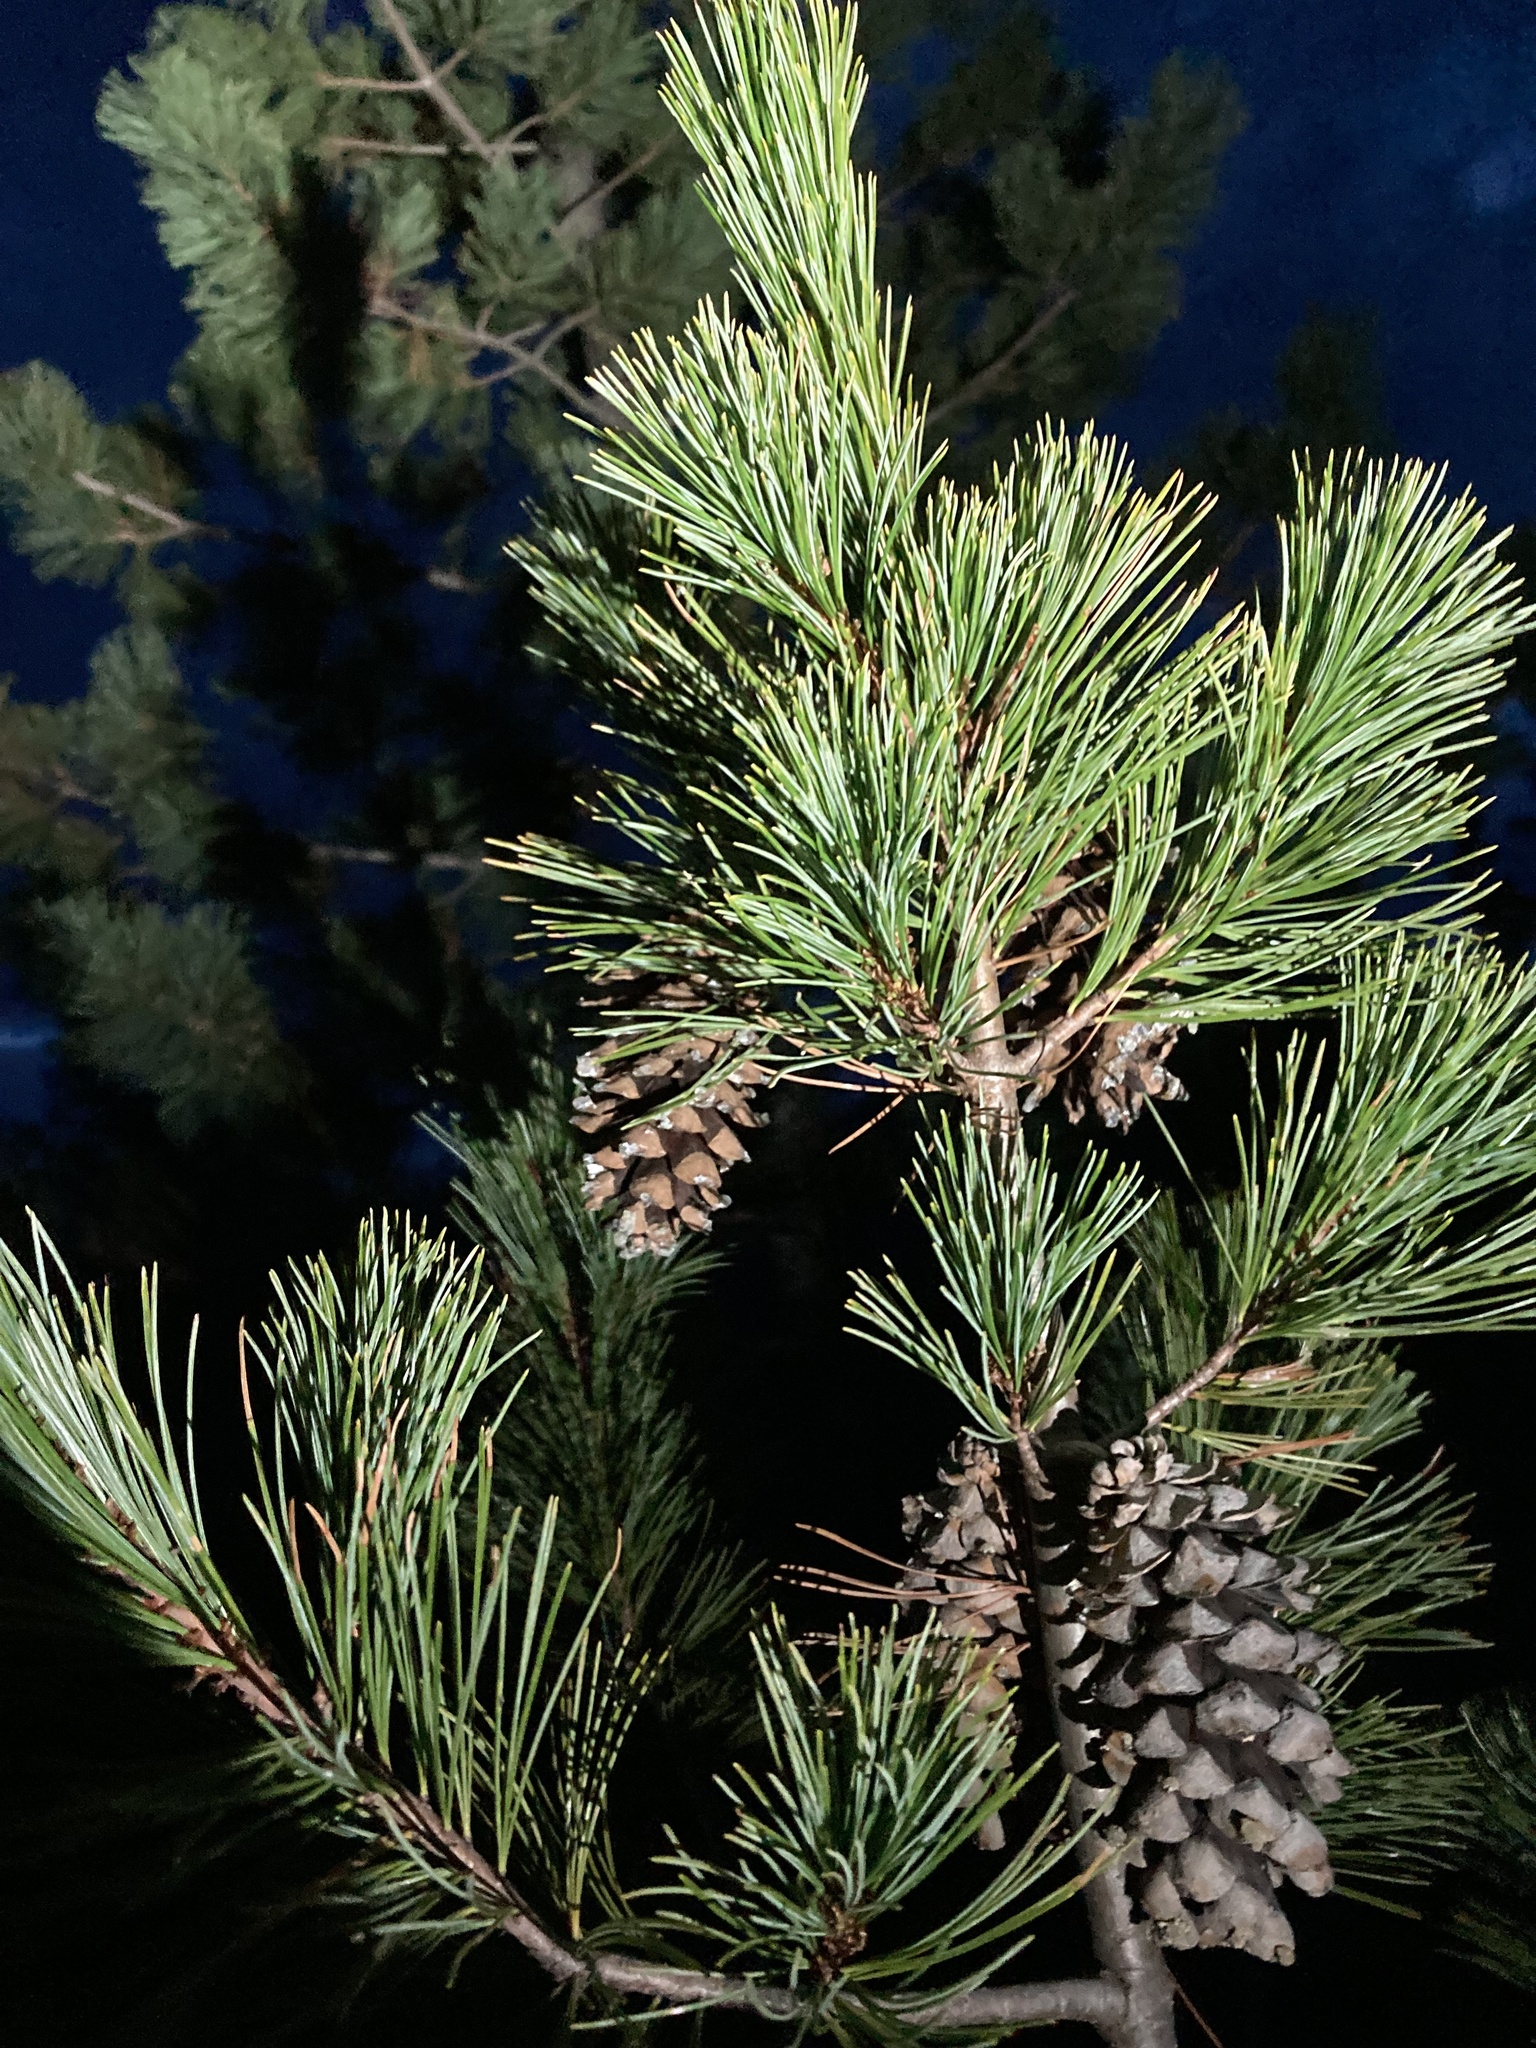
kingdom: Plantae
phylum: Tracheophyta
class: Pinopsida
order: Pinales
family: Pinaceae
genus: Pinus
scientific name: Pinus monticola
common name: Western white pine
